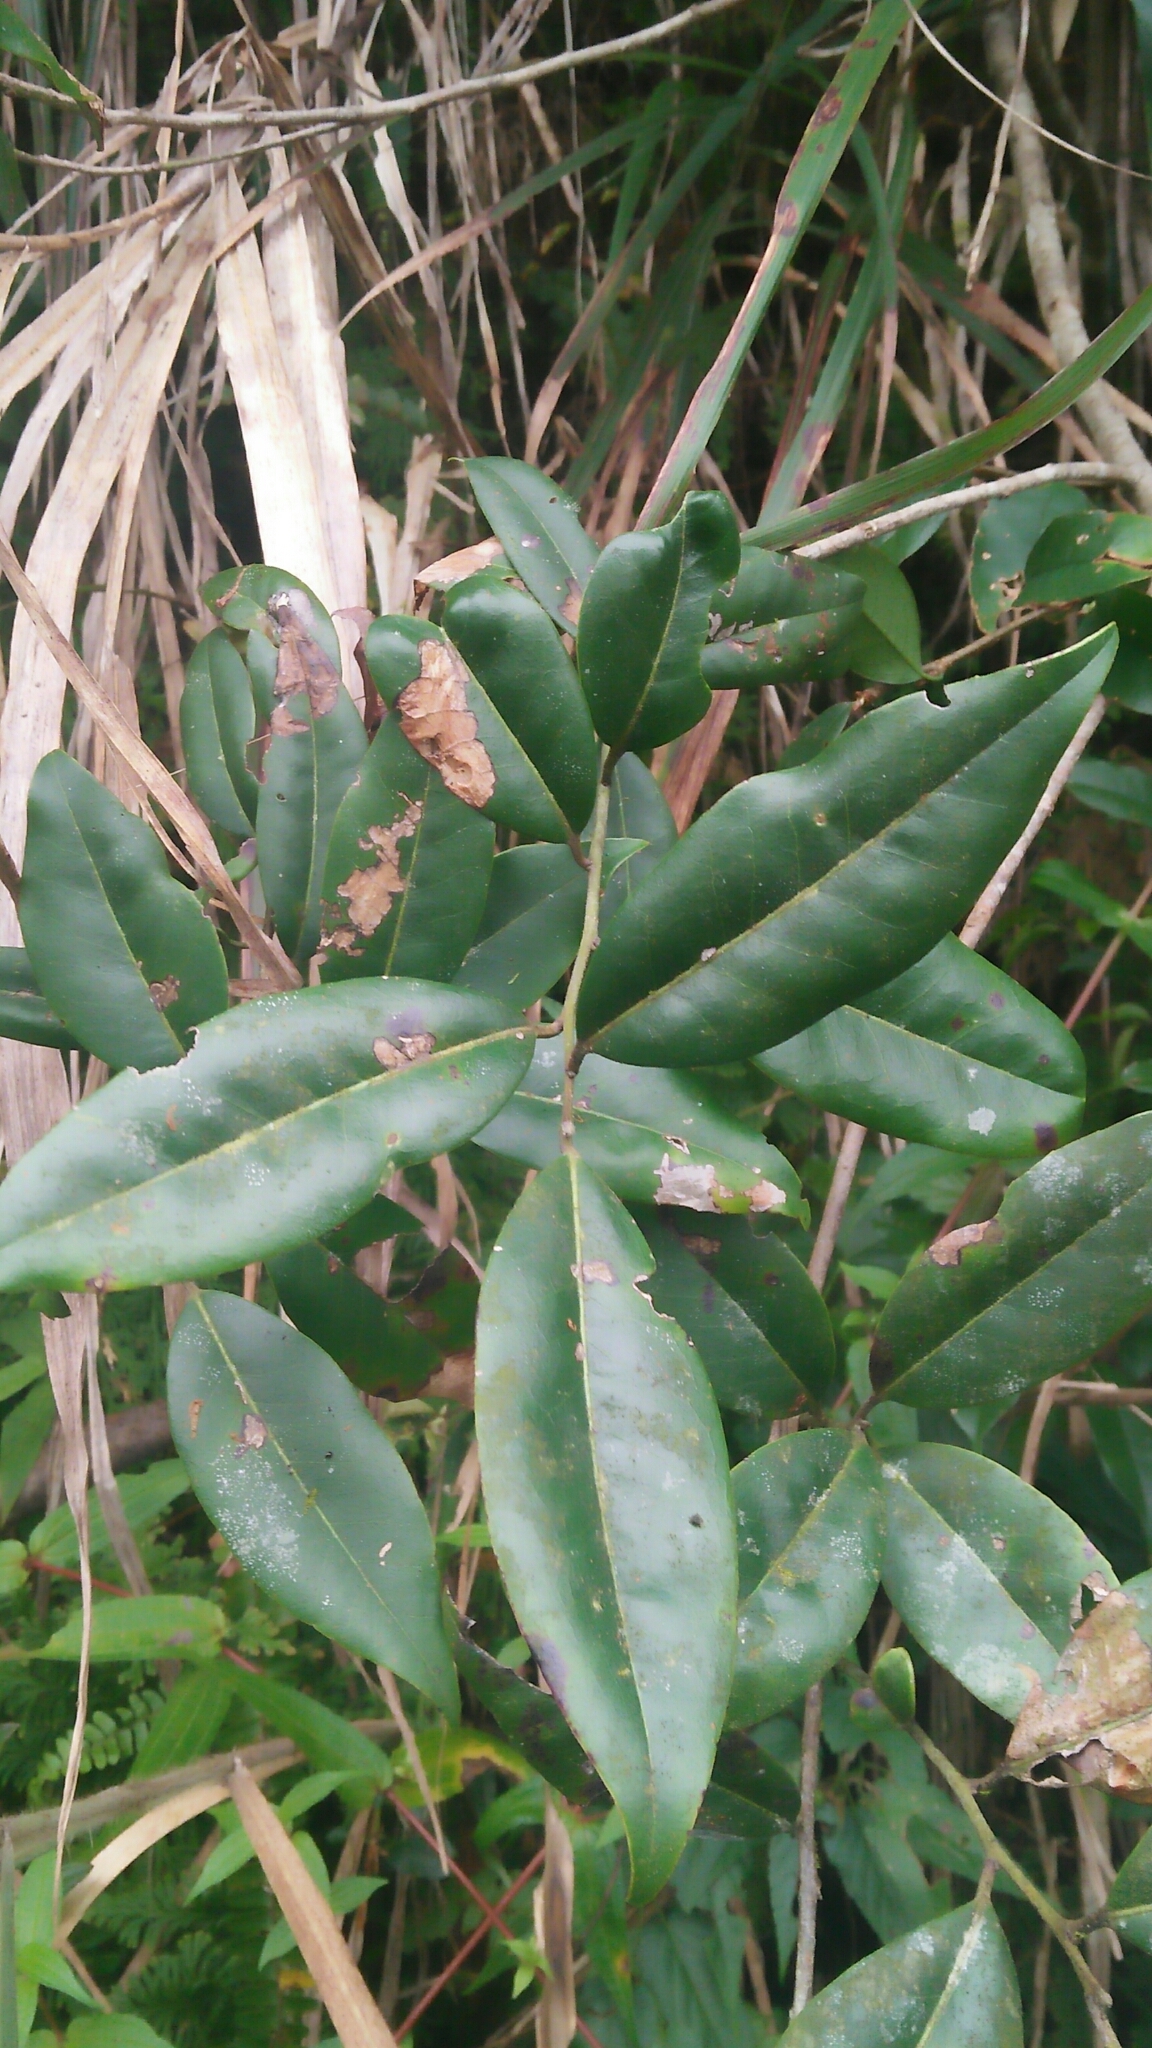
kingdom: Plantae
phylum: Tracheophyta
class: Magnoliopsida
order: Aquifoliales
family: Aquifoliaceae
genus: Ilex
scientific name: Ilex lonicerifolia
